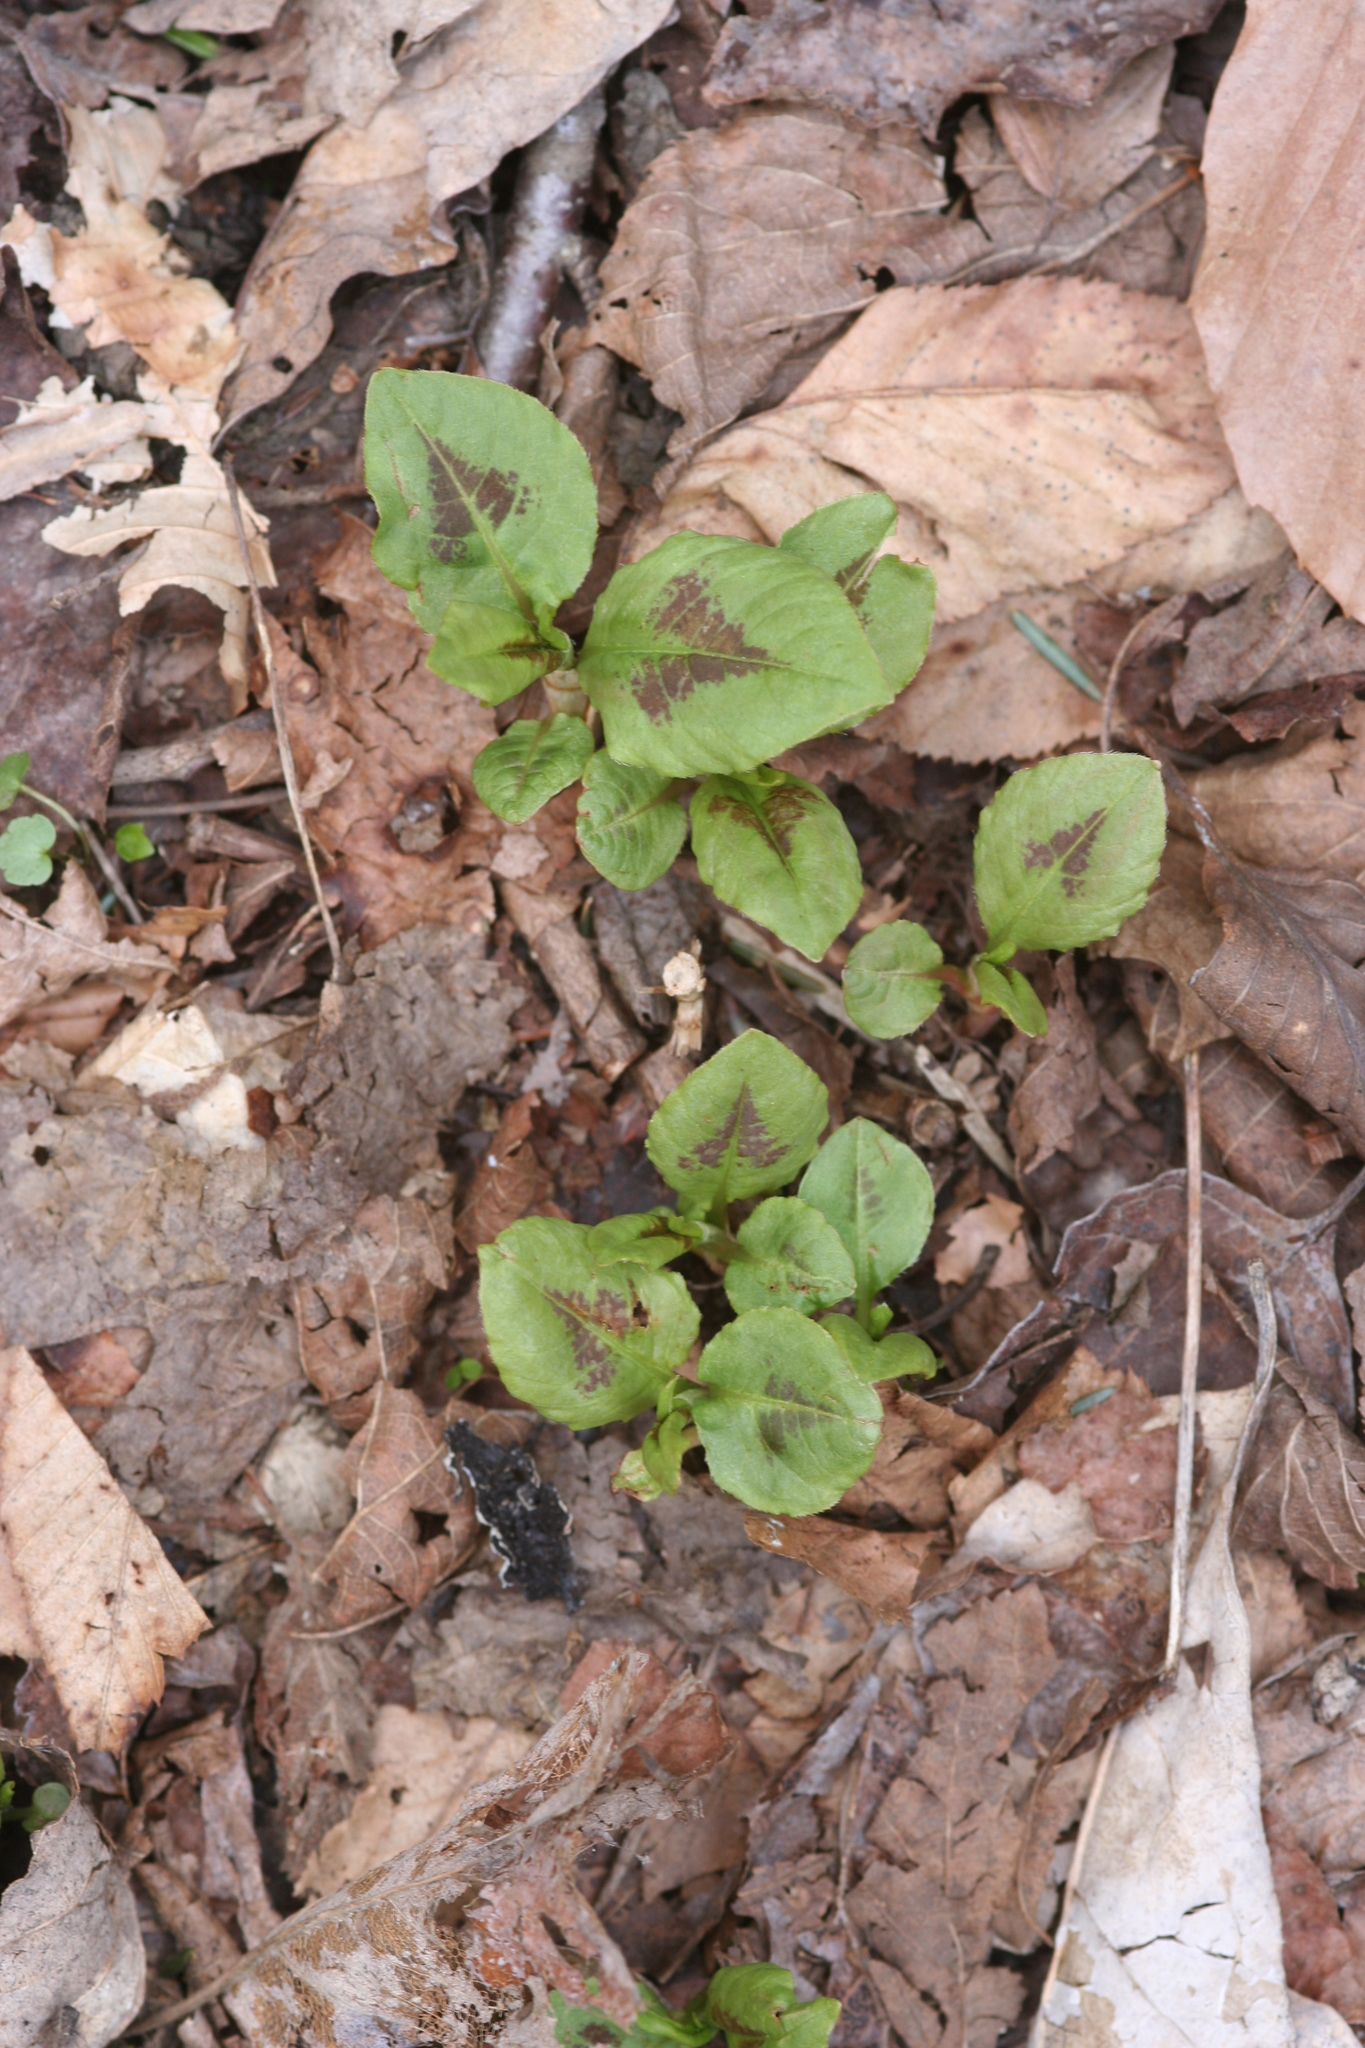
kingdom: Plantae
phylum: Tracheophyta
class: Magnoliopsida
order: Caryophyllales
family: Polygonaceae
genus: Persicaria
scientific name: Persicaria virginiana
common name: Jumpseed
